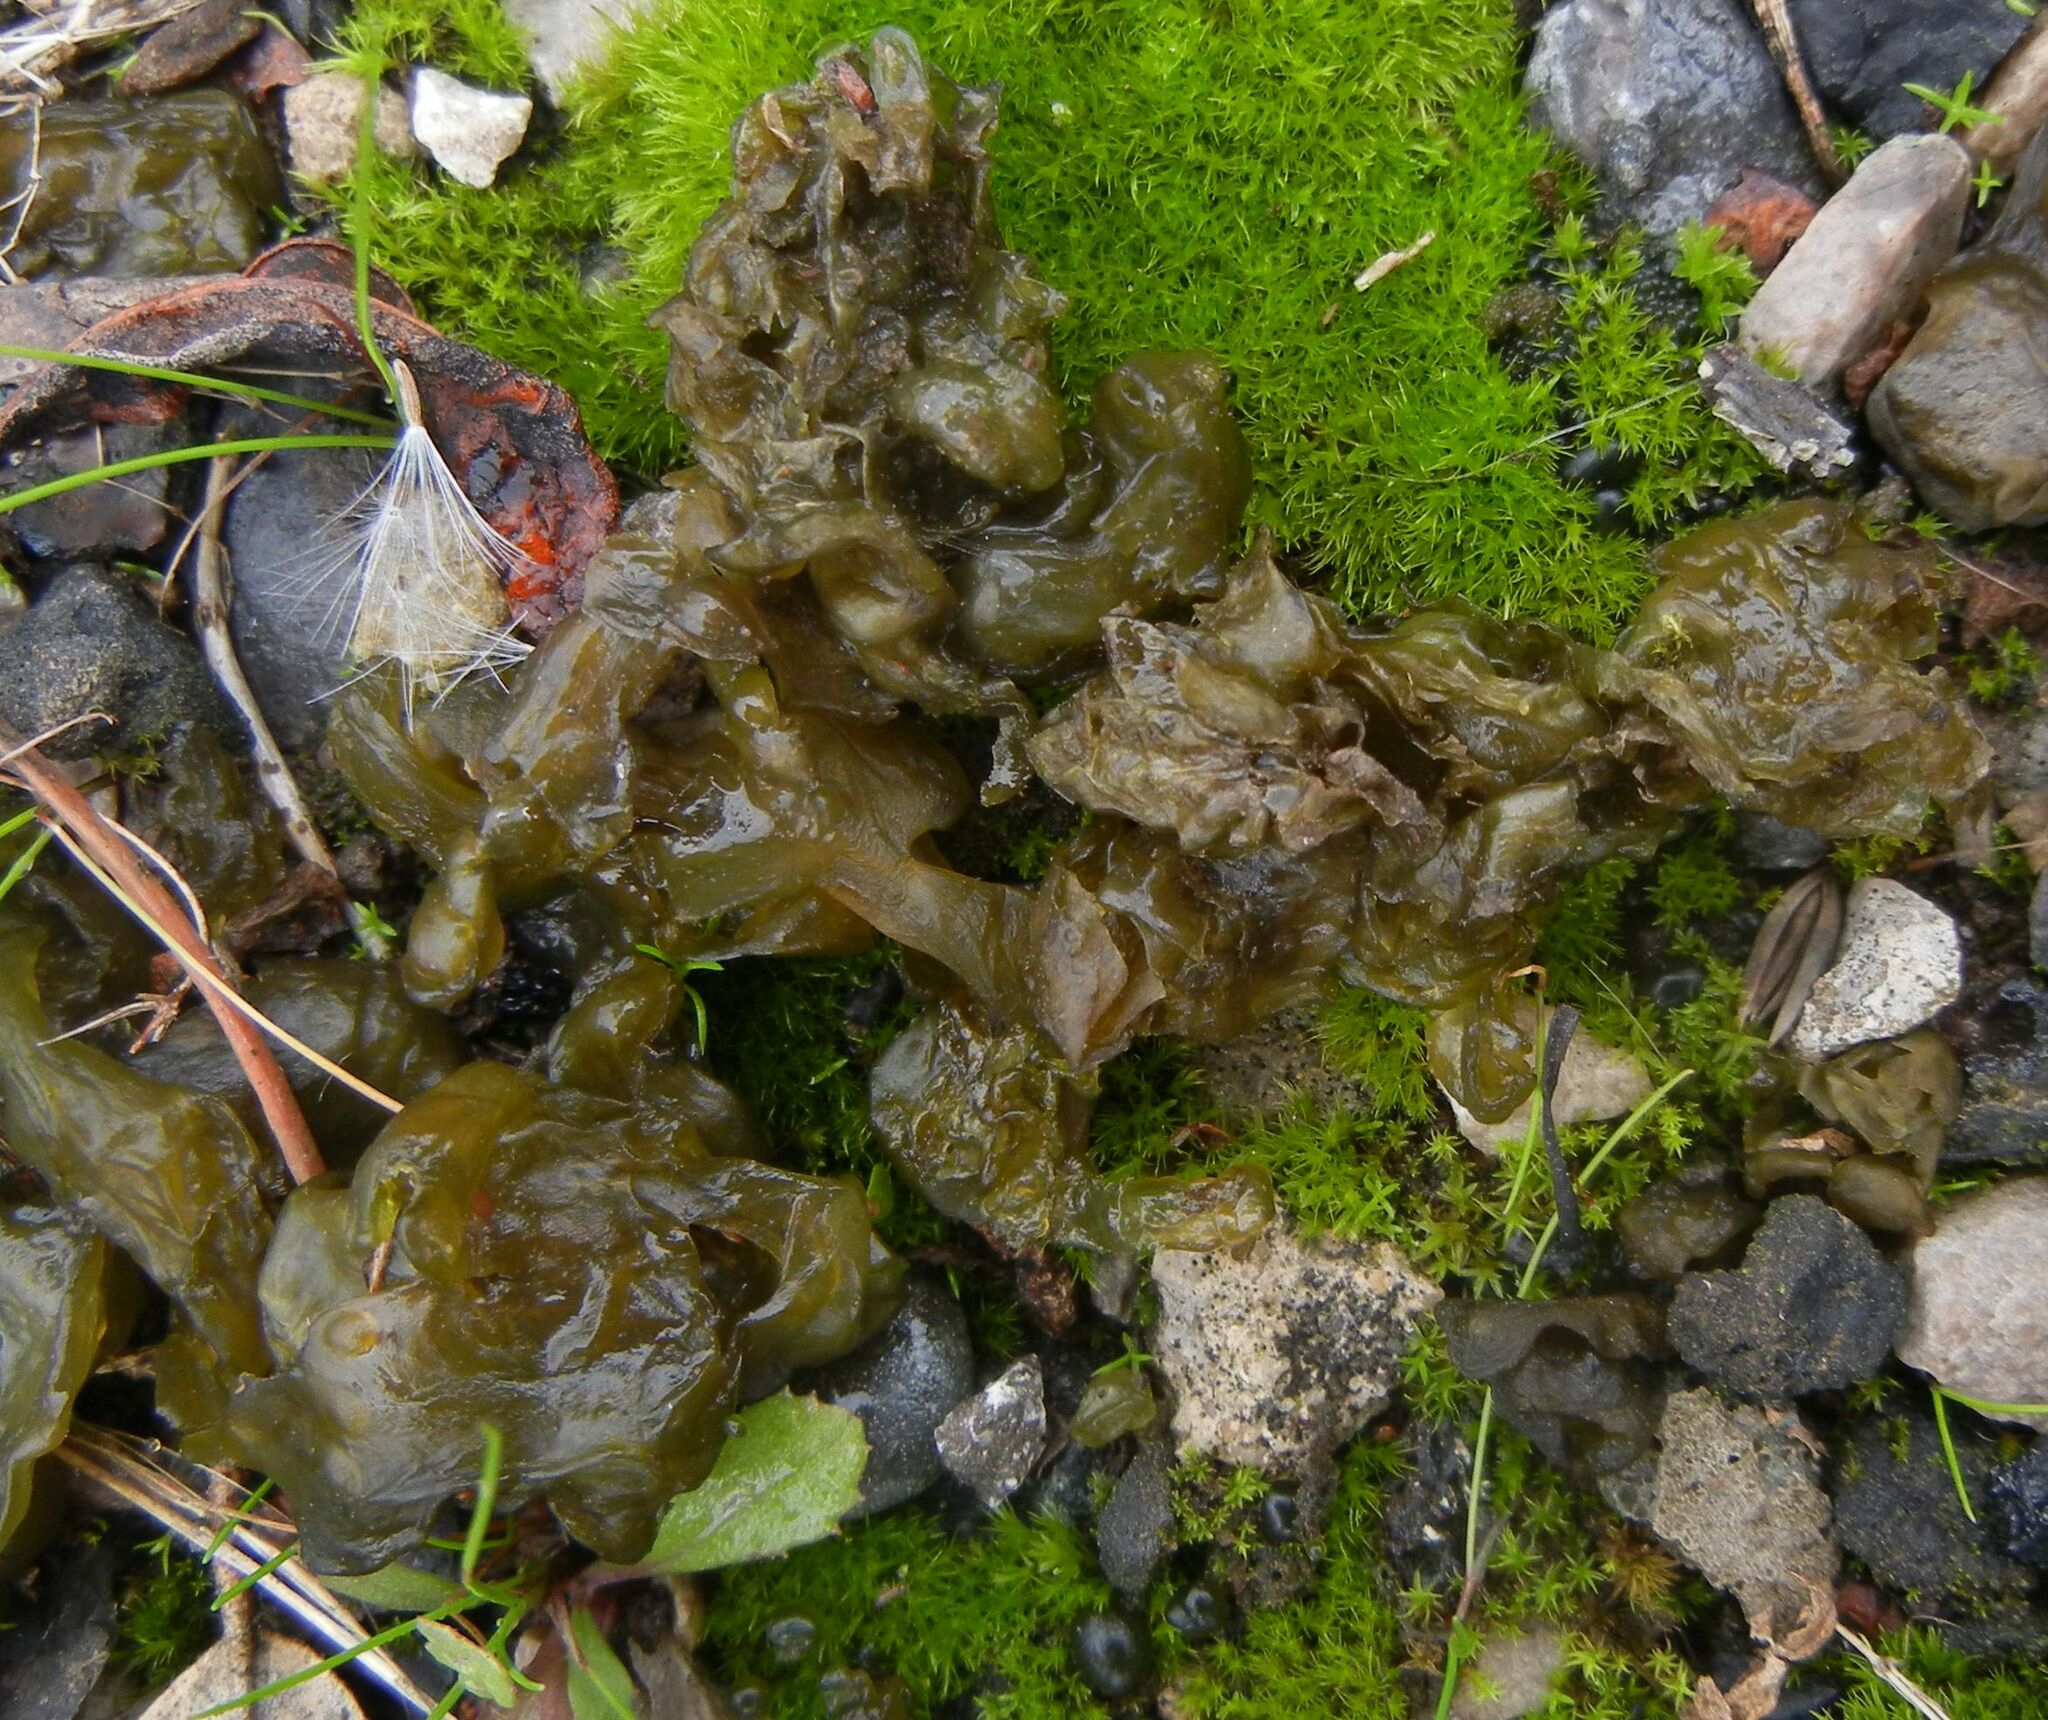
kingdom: Bacteria
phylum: Cyanobacteria
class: Cyanobacteriia
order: Cyanobacteriales
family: Nostocaceae
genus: Nostoc
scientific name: Nostoc commune
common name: Star jelly
